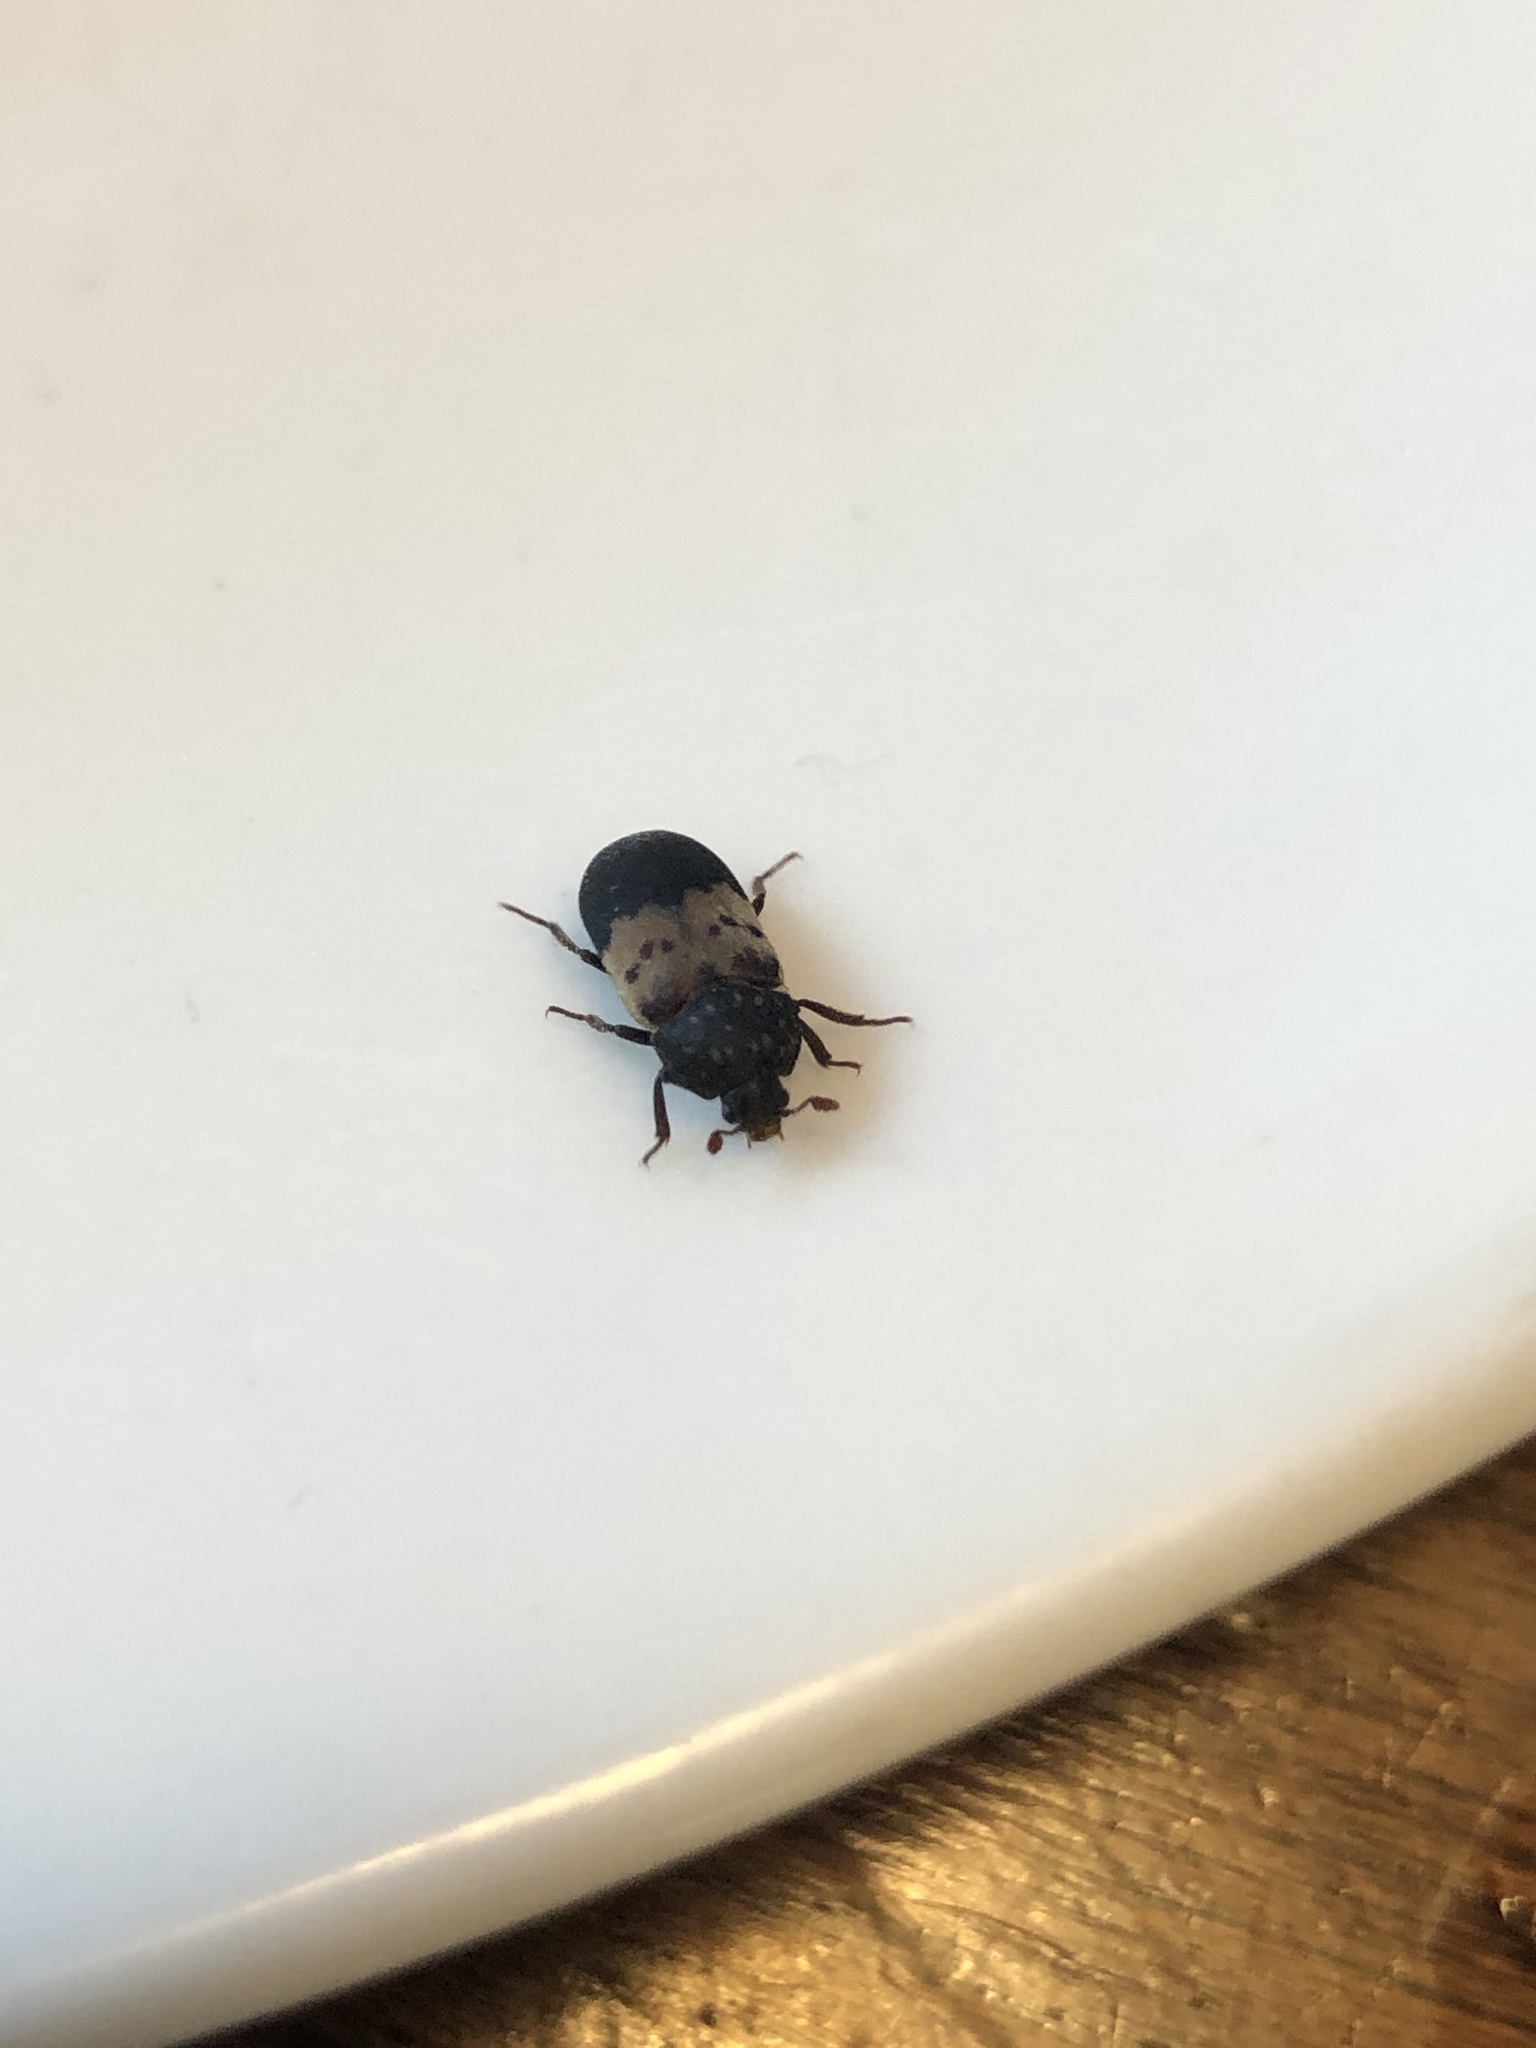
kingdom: Animalia
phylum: Arthropoda
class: Insecta
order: Coleoptera
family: Dermestidae
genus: Dermestes
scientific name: Dermestes lardarius
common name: Larder beetle
